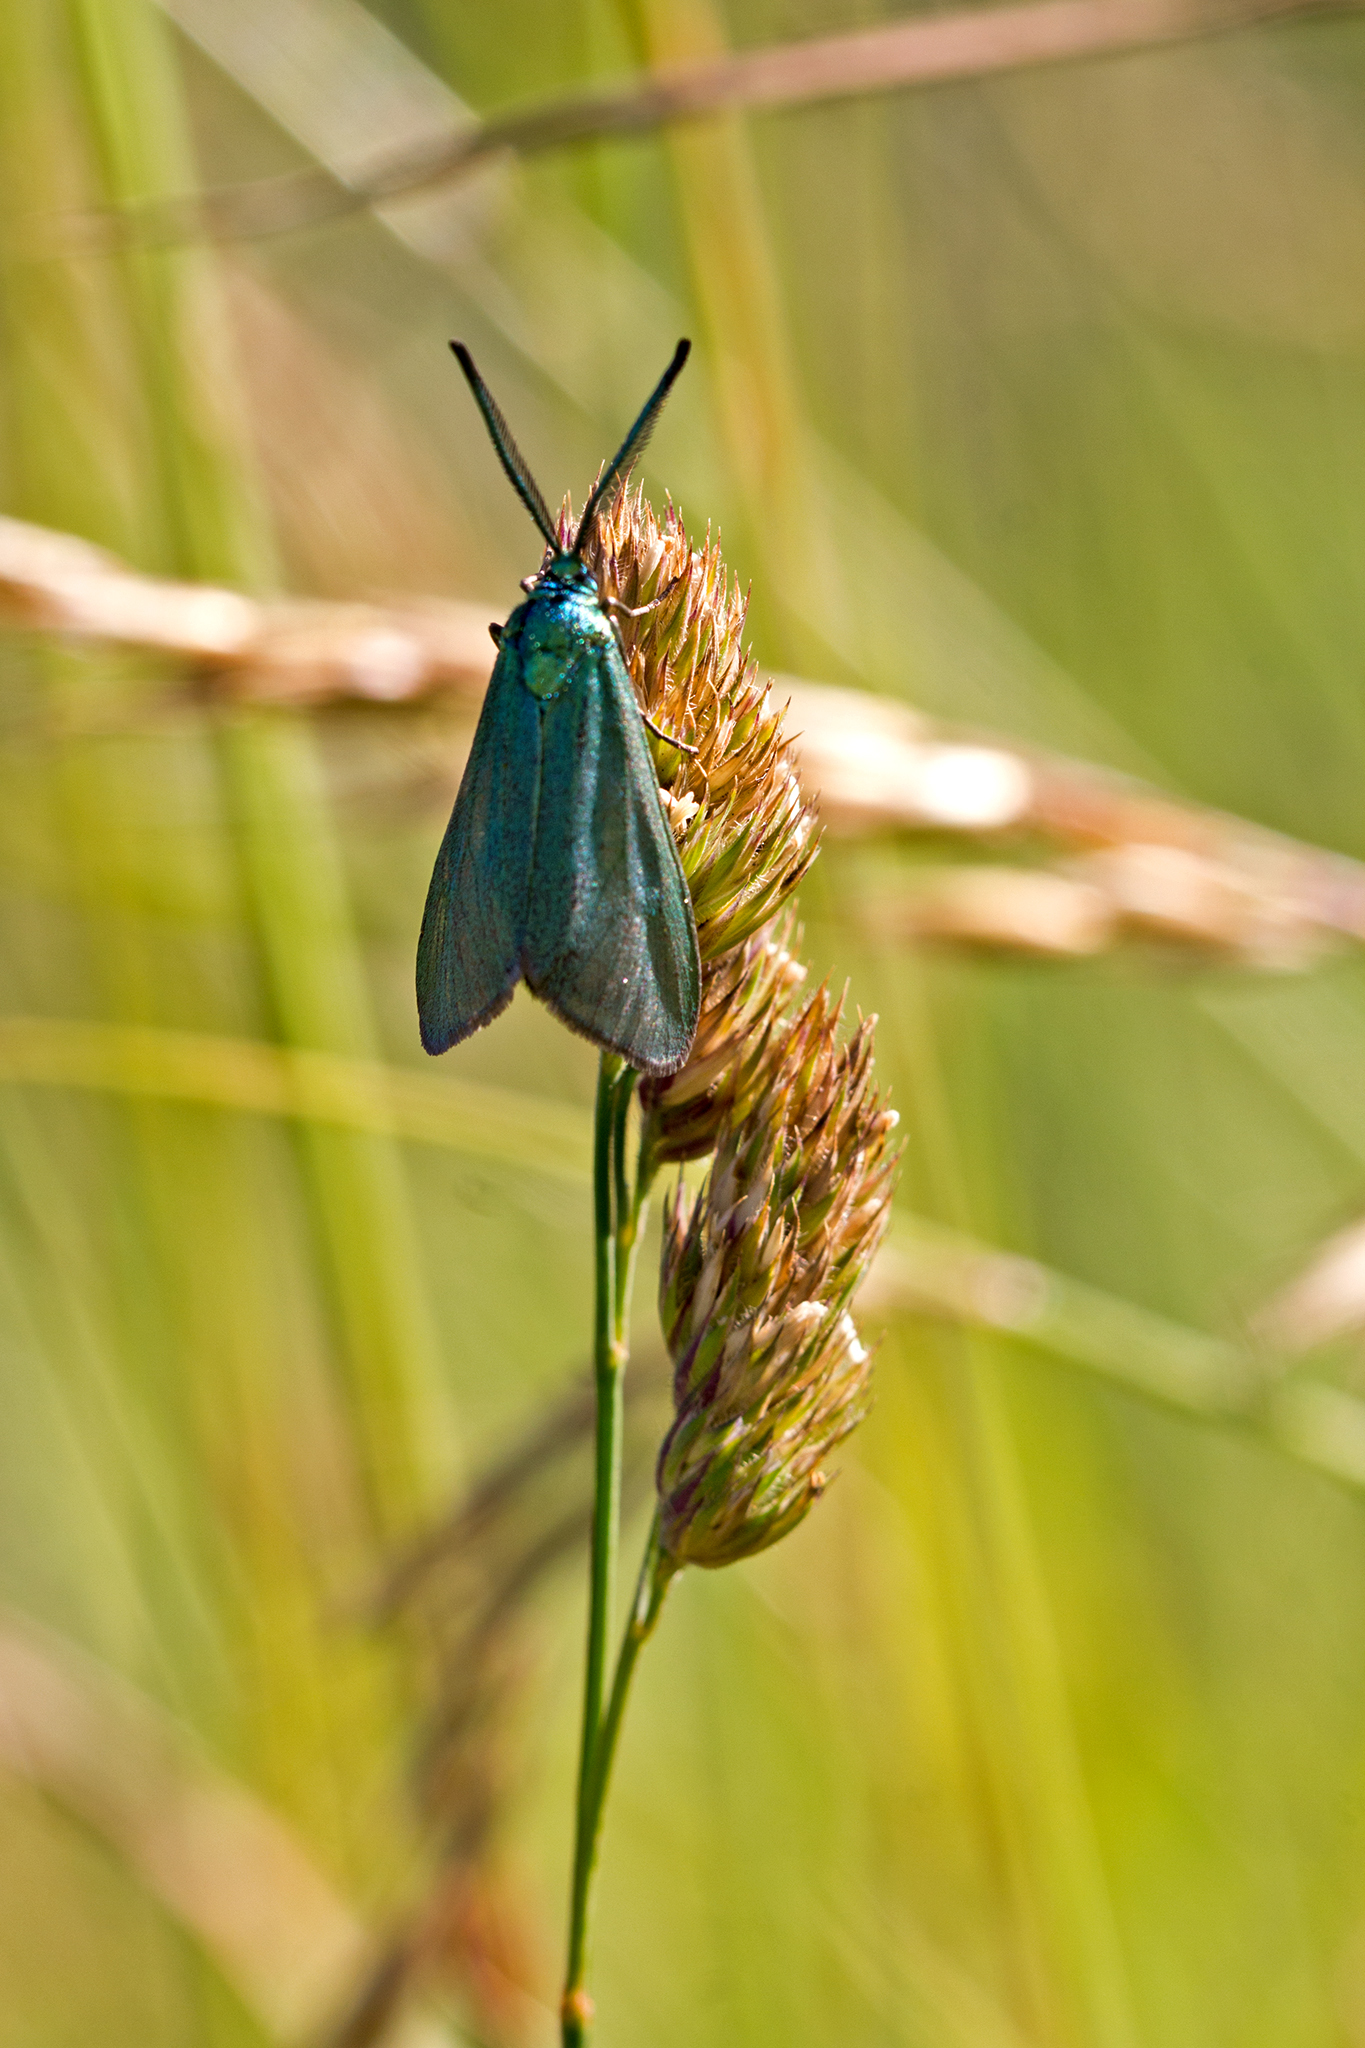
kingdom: Animalia
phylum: Arthropoda
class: Insecta
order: Lepidoptera
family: Zygaenidae
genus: Adscita
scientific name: Adscita statices
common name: Forester
